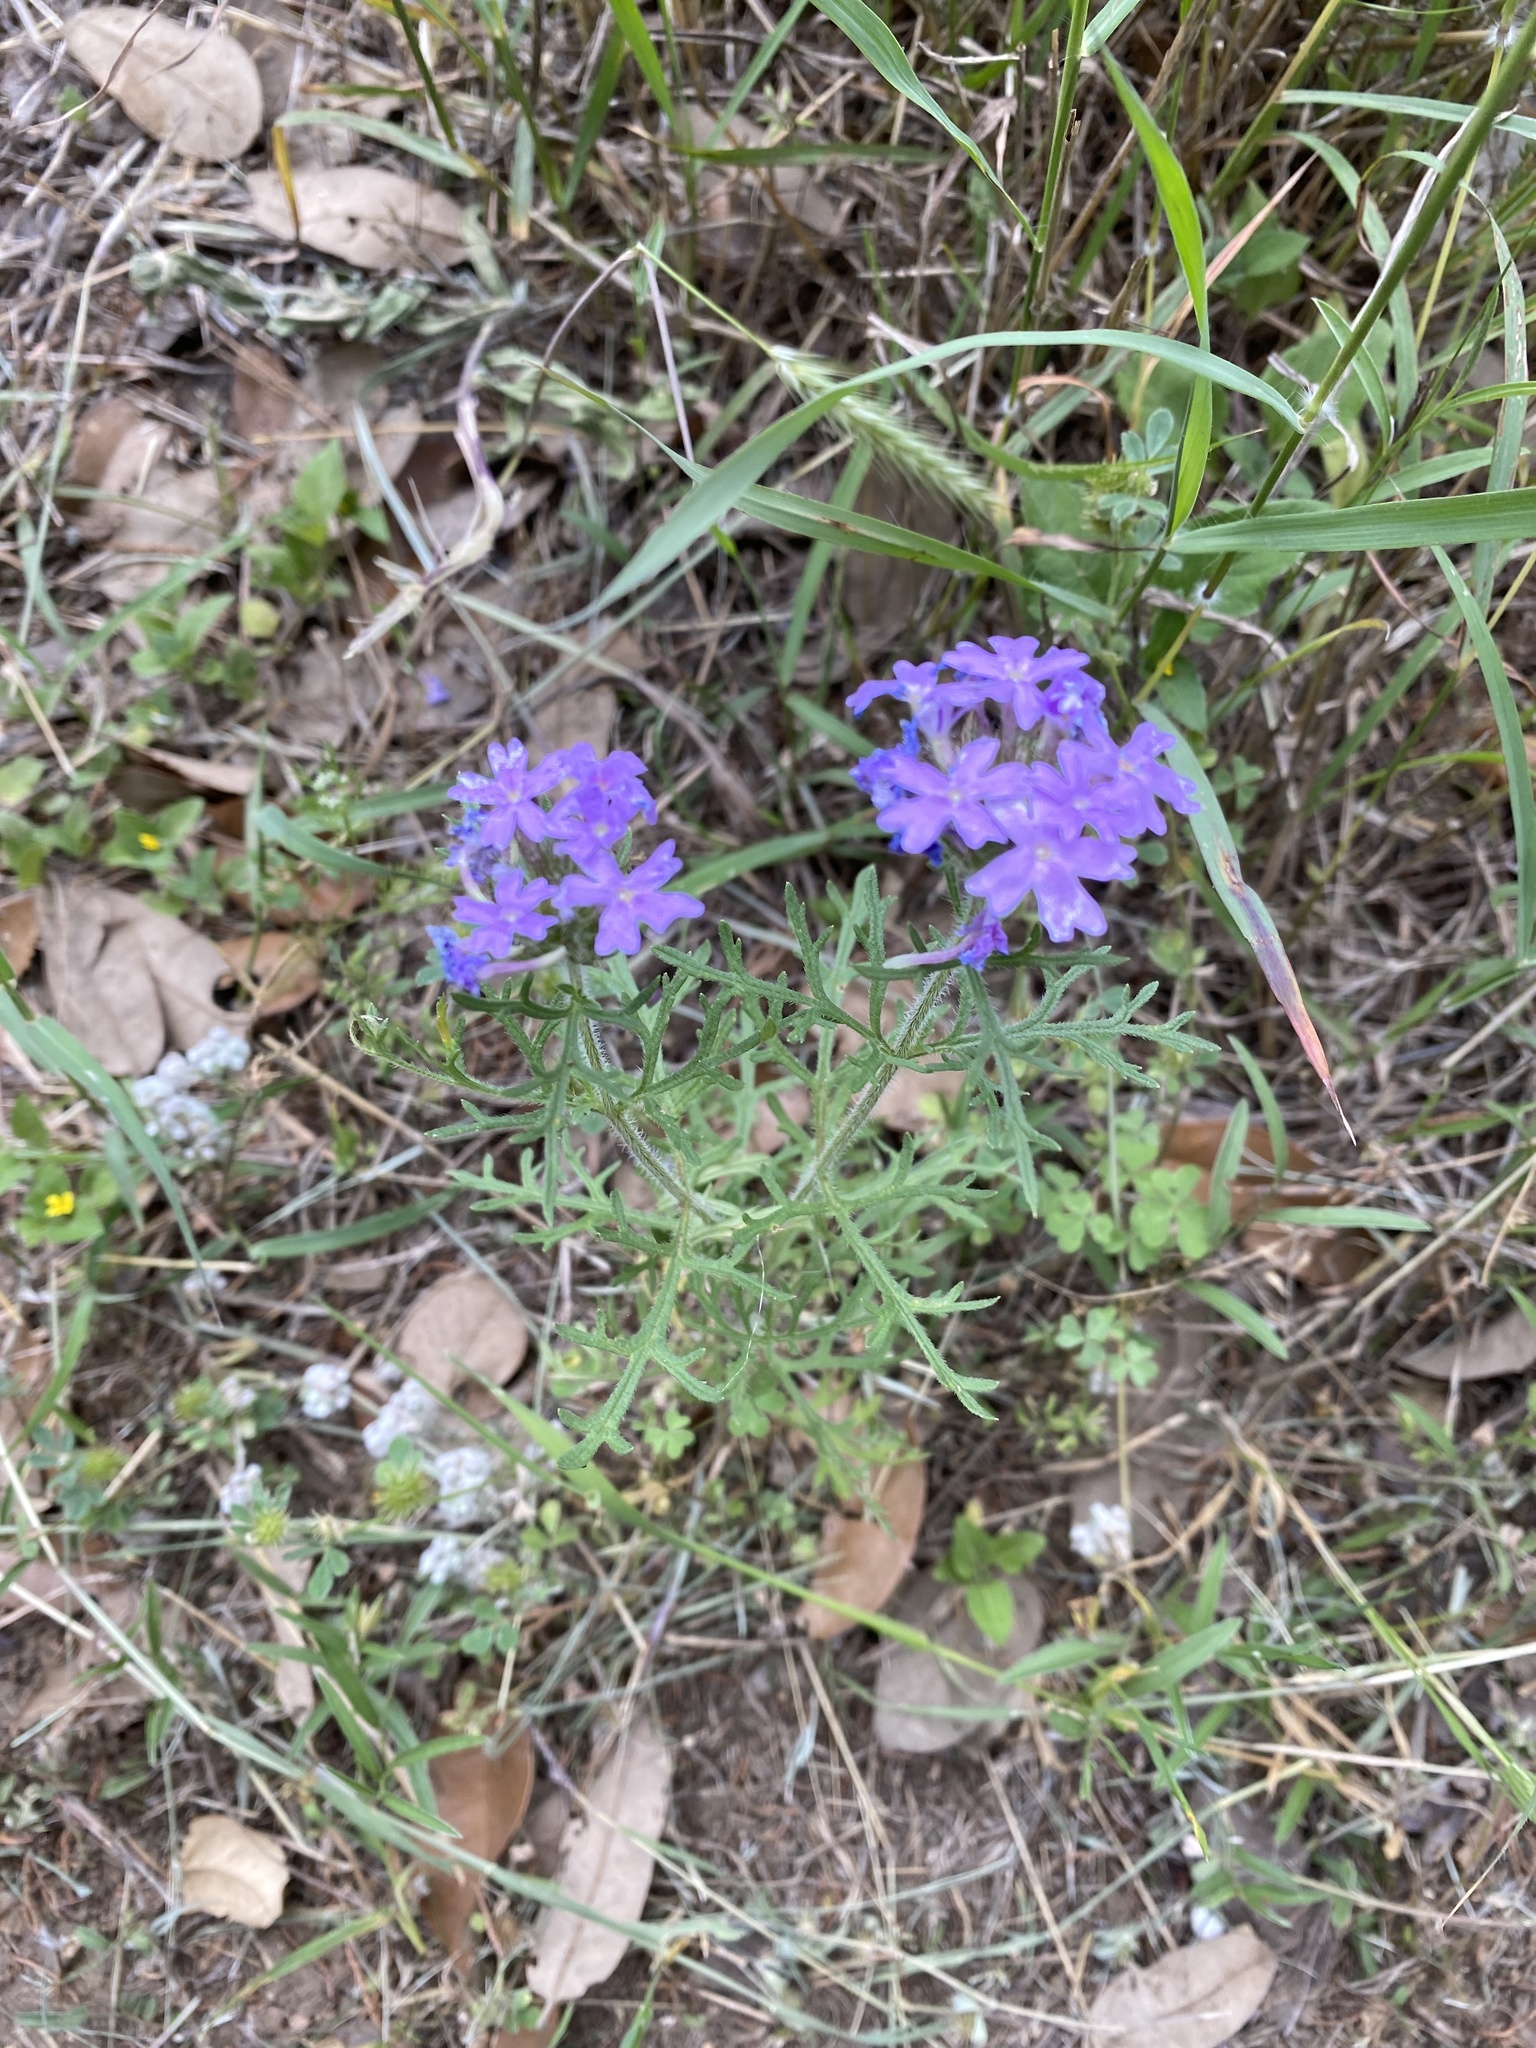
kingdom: Plantae
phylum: Tracheophyta
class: Magnoliopsida
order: Lamiales
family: Verbenaceae
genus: Verbena
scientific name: Verbena bipinnatifida
